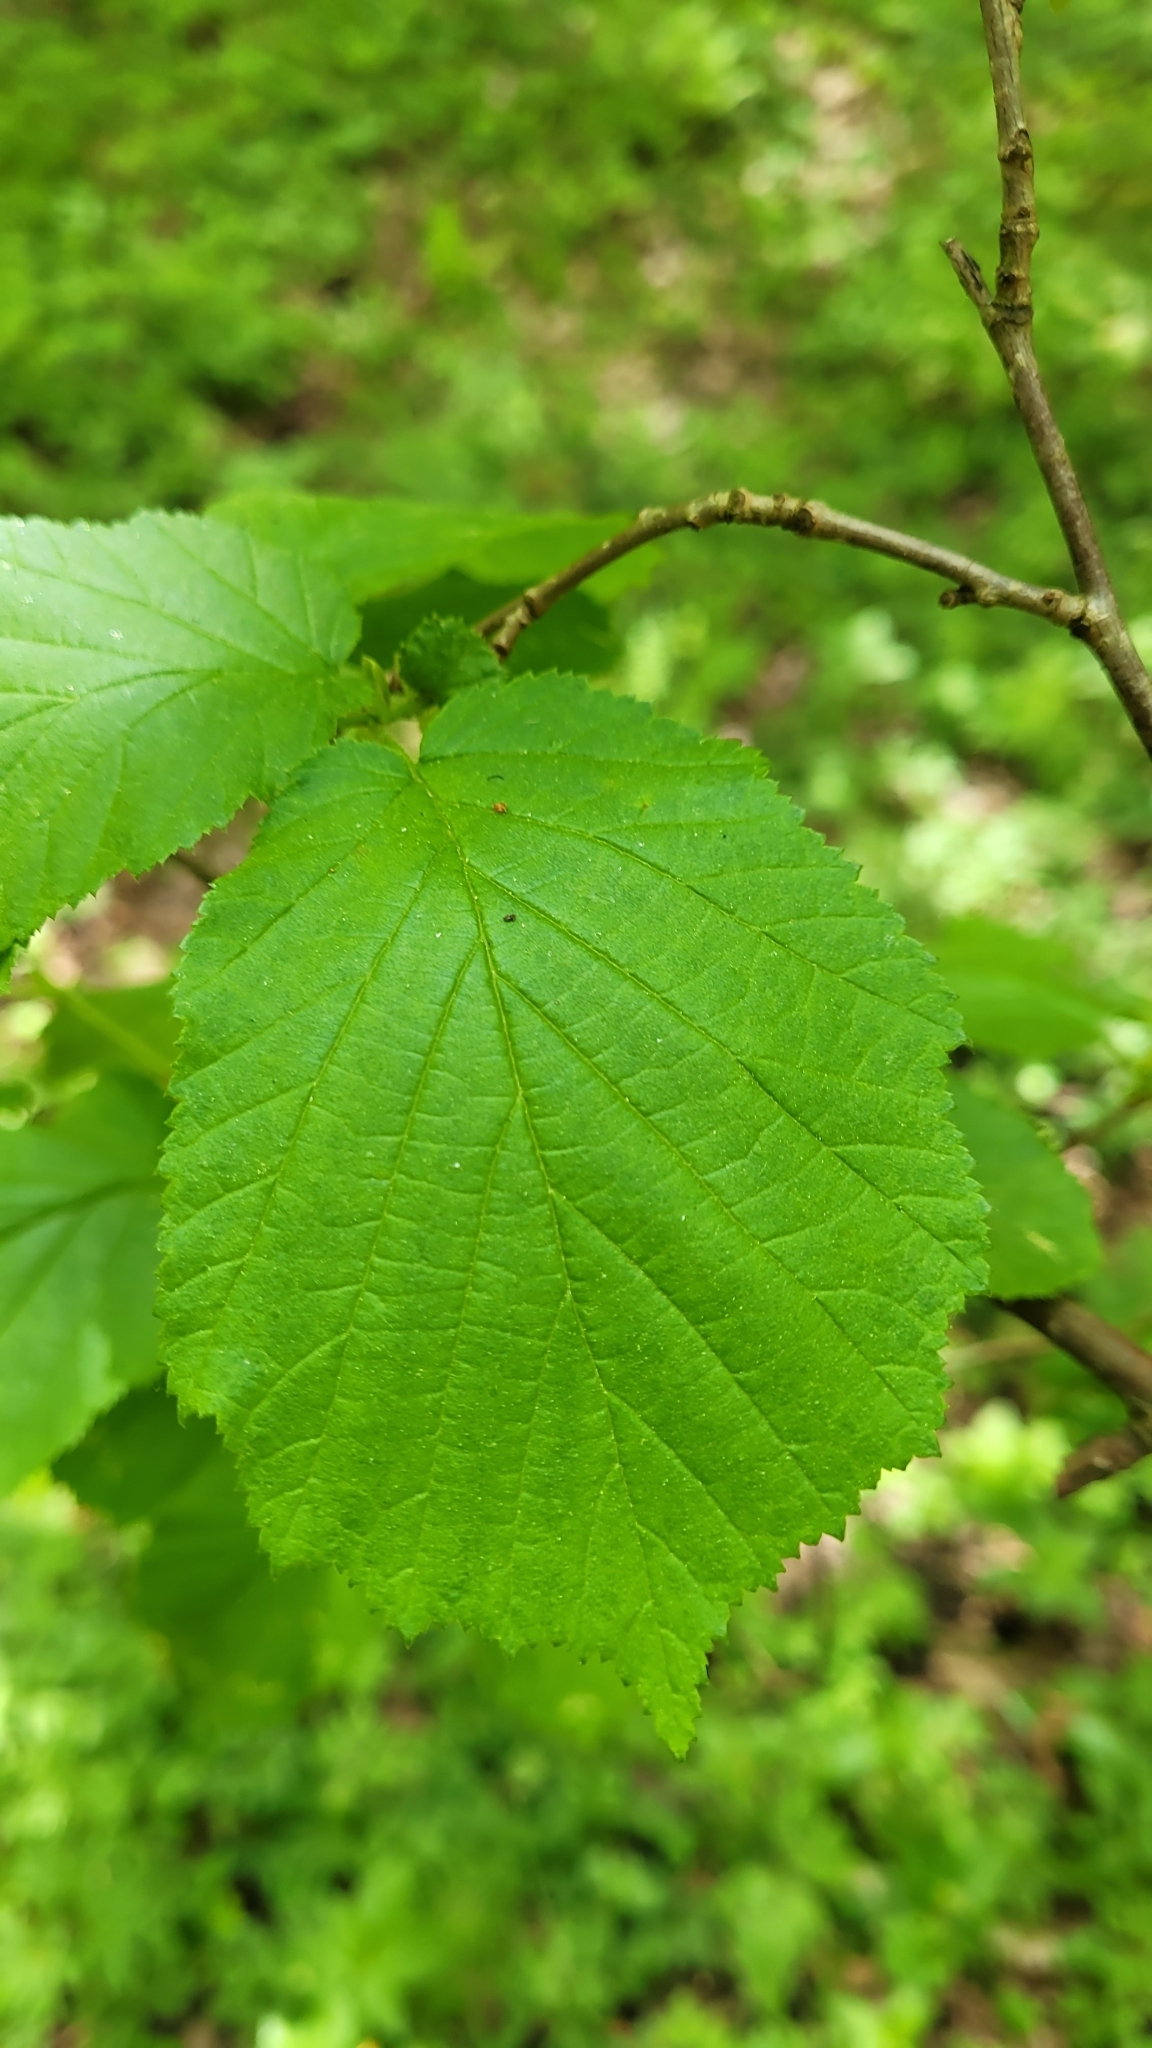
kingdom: Plantae
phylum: Tracheophyta
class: Magnoliopsida
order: Fagales
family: Betulaceae
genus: Corylus
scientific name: Corylus avellana
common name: European hazel
